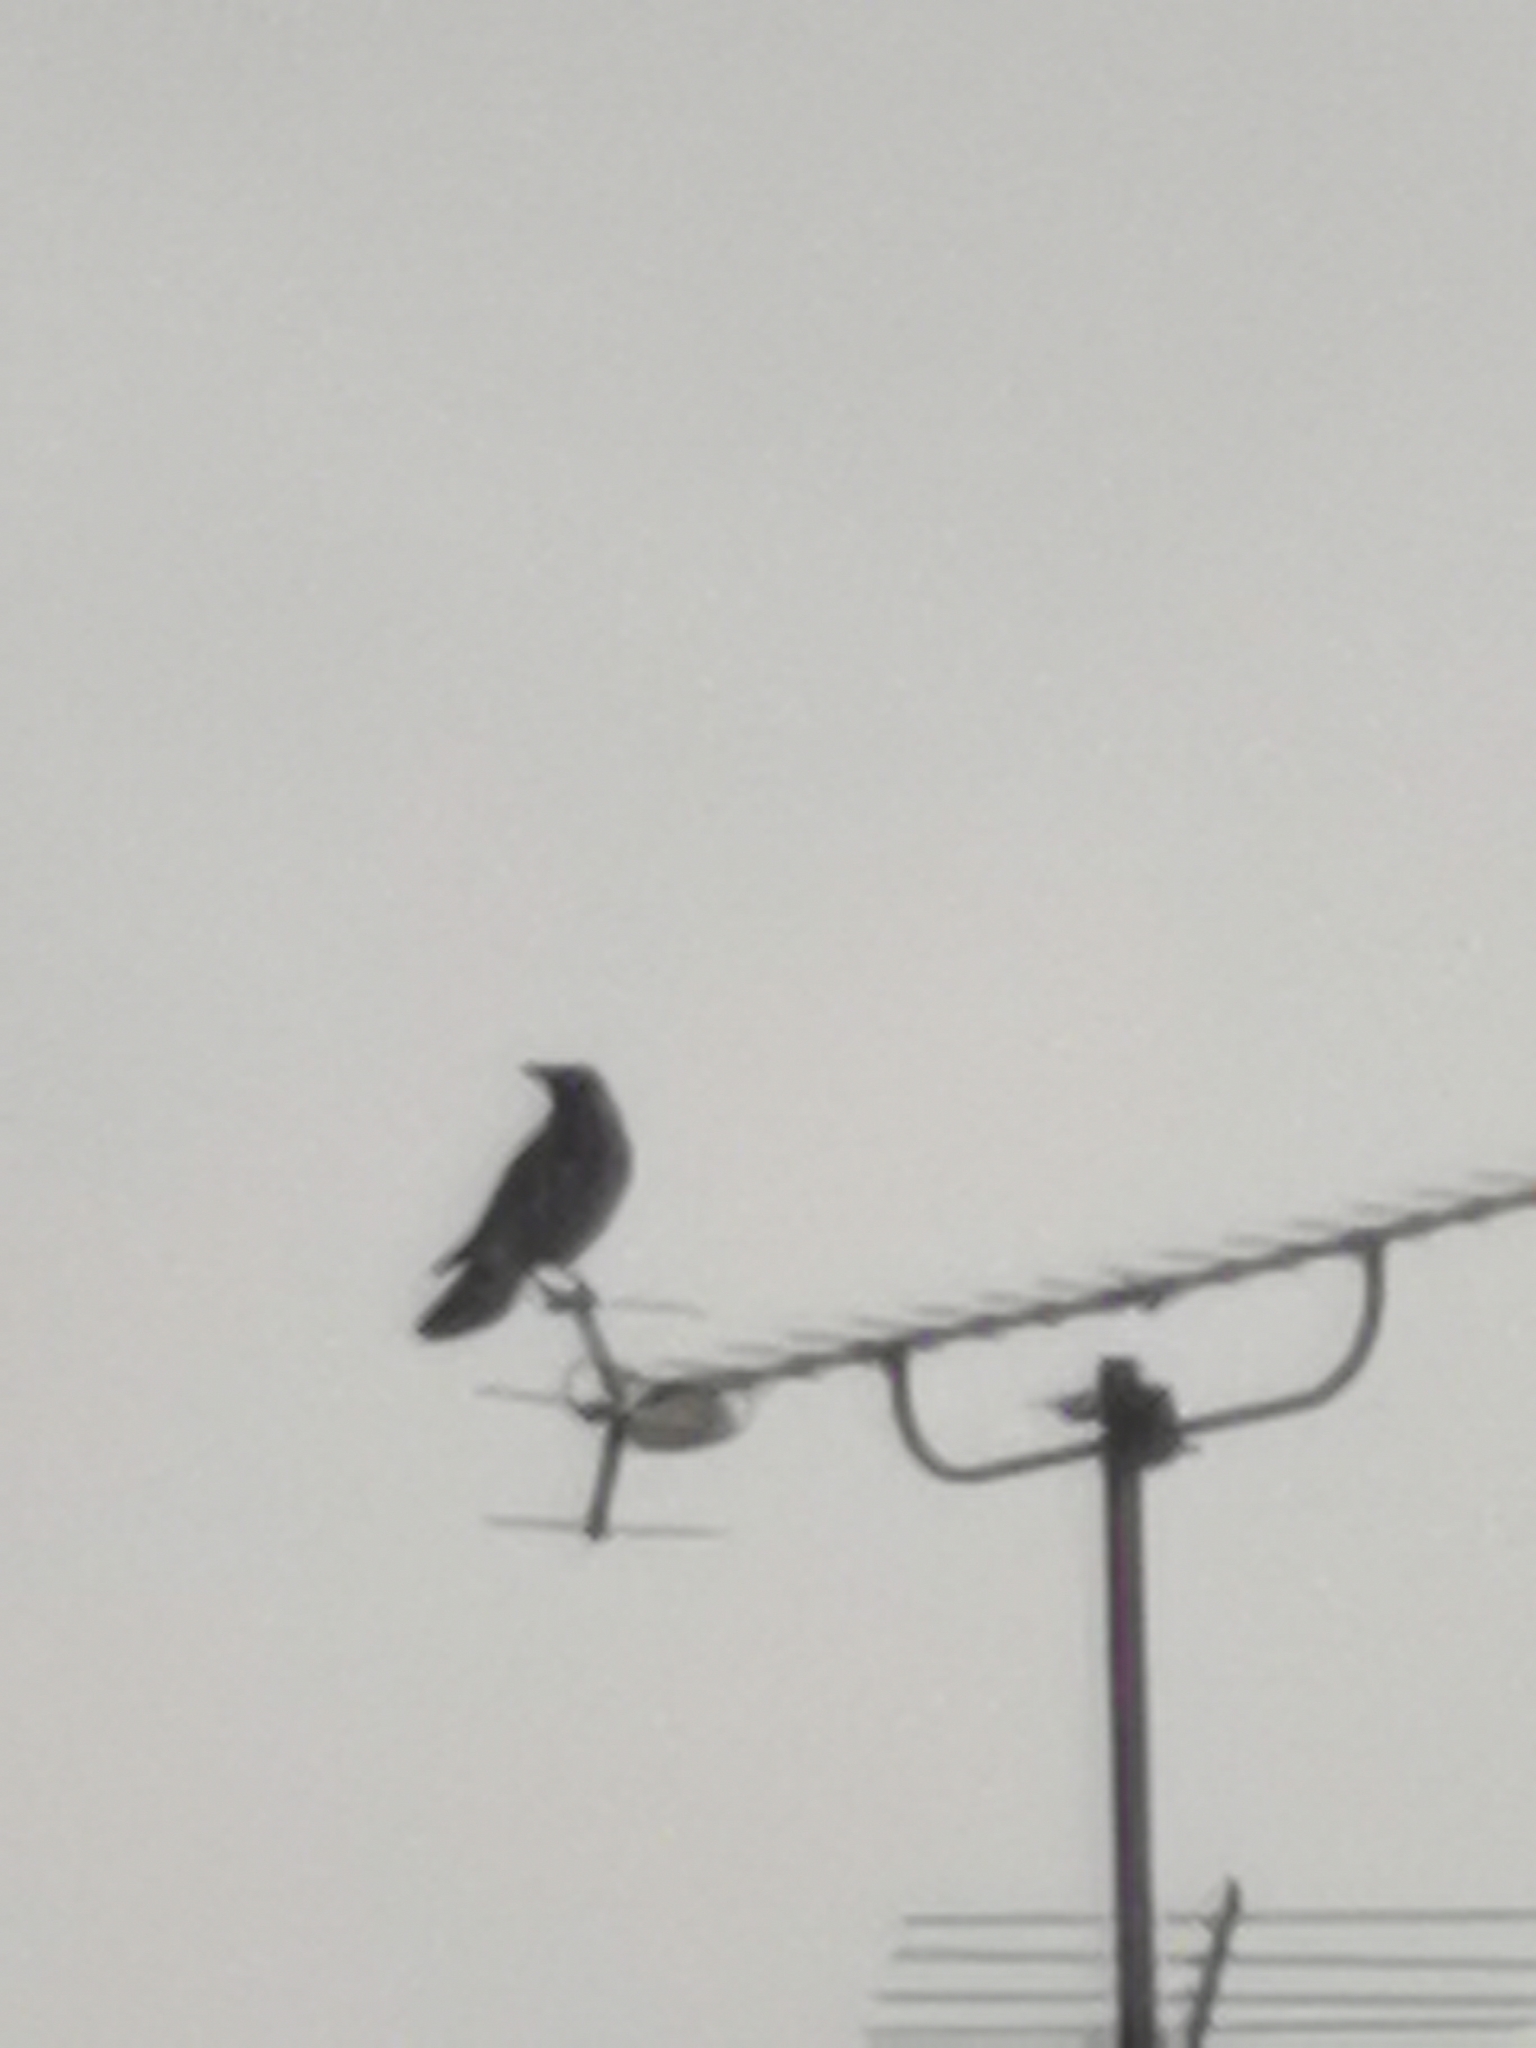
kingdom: Animalia
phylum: Chordata
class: Aves
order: Passeriformes
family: Corvidae
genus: Corvus
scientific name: Corvus cornix
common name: Hooded crow
